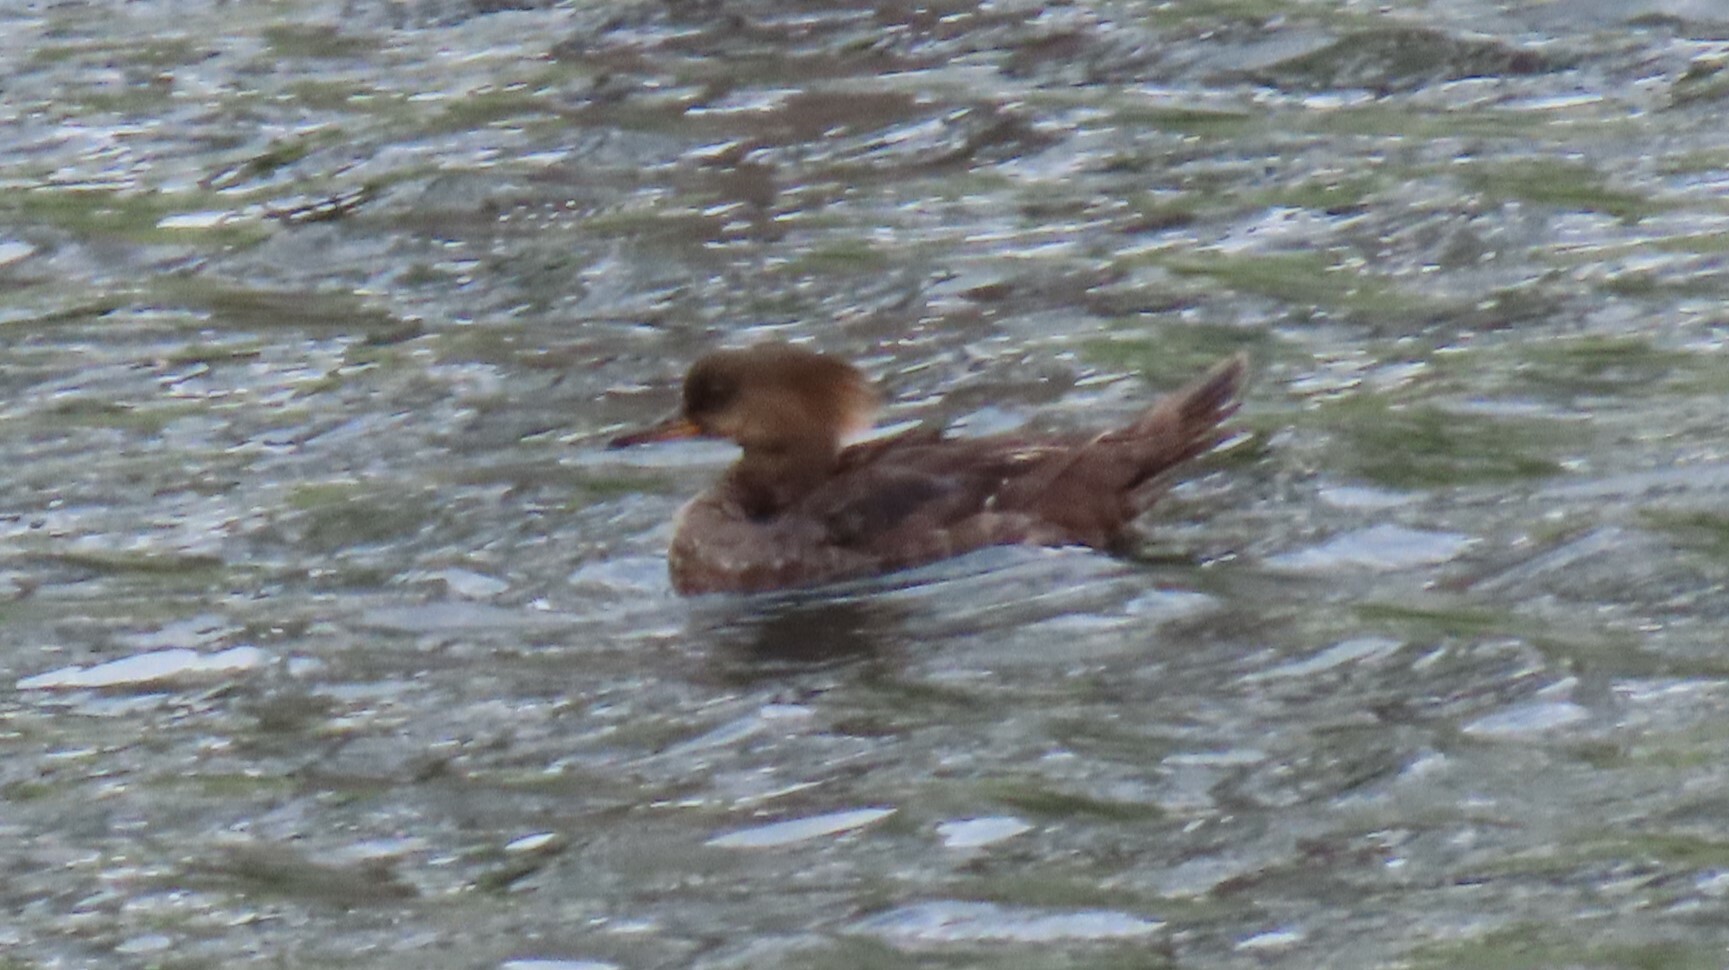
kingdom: Animalia
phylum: Chordata
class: Aves
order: Anseriformes
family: Anatidae
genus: Lophodytes
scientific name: Lophodytes cucullatus
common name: Hooded merganser
